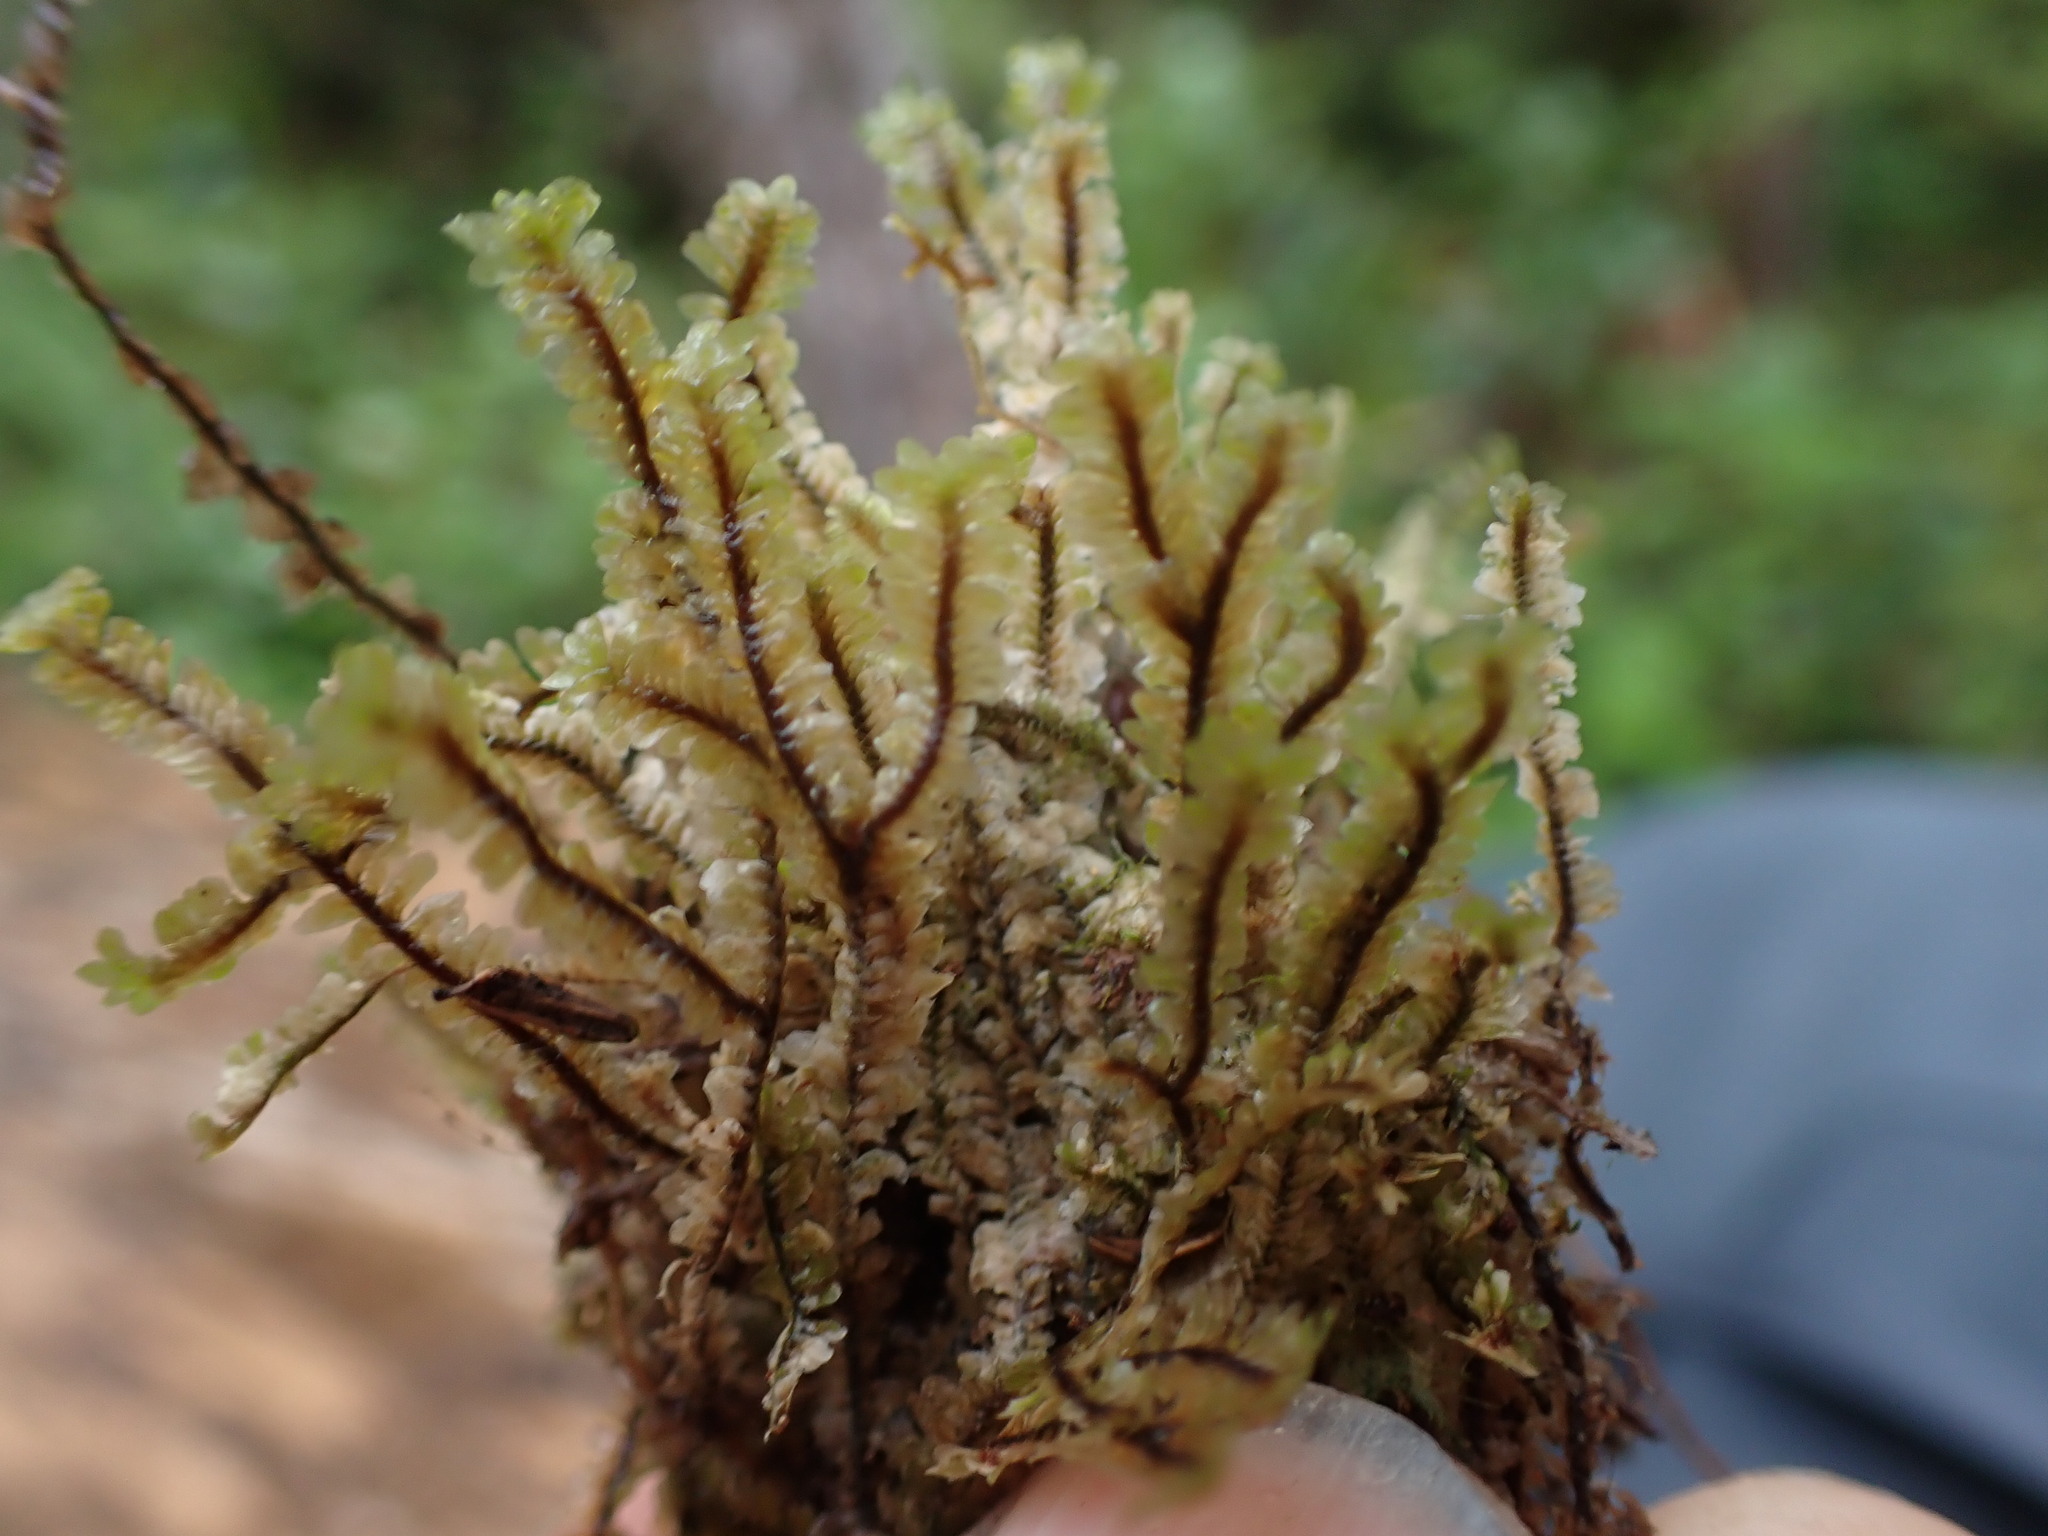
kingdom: Plantae
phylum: Marchantiophyta
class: Jungermanniopsida
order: Jungermanniales
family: Scapaniaceae
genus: Macrodiplophyllum
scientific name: Macrodiplophyllum rubrum
